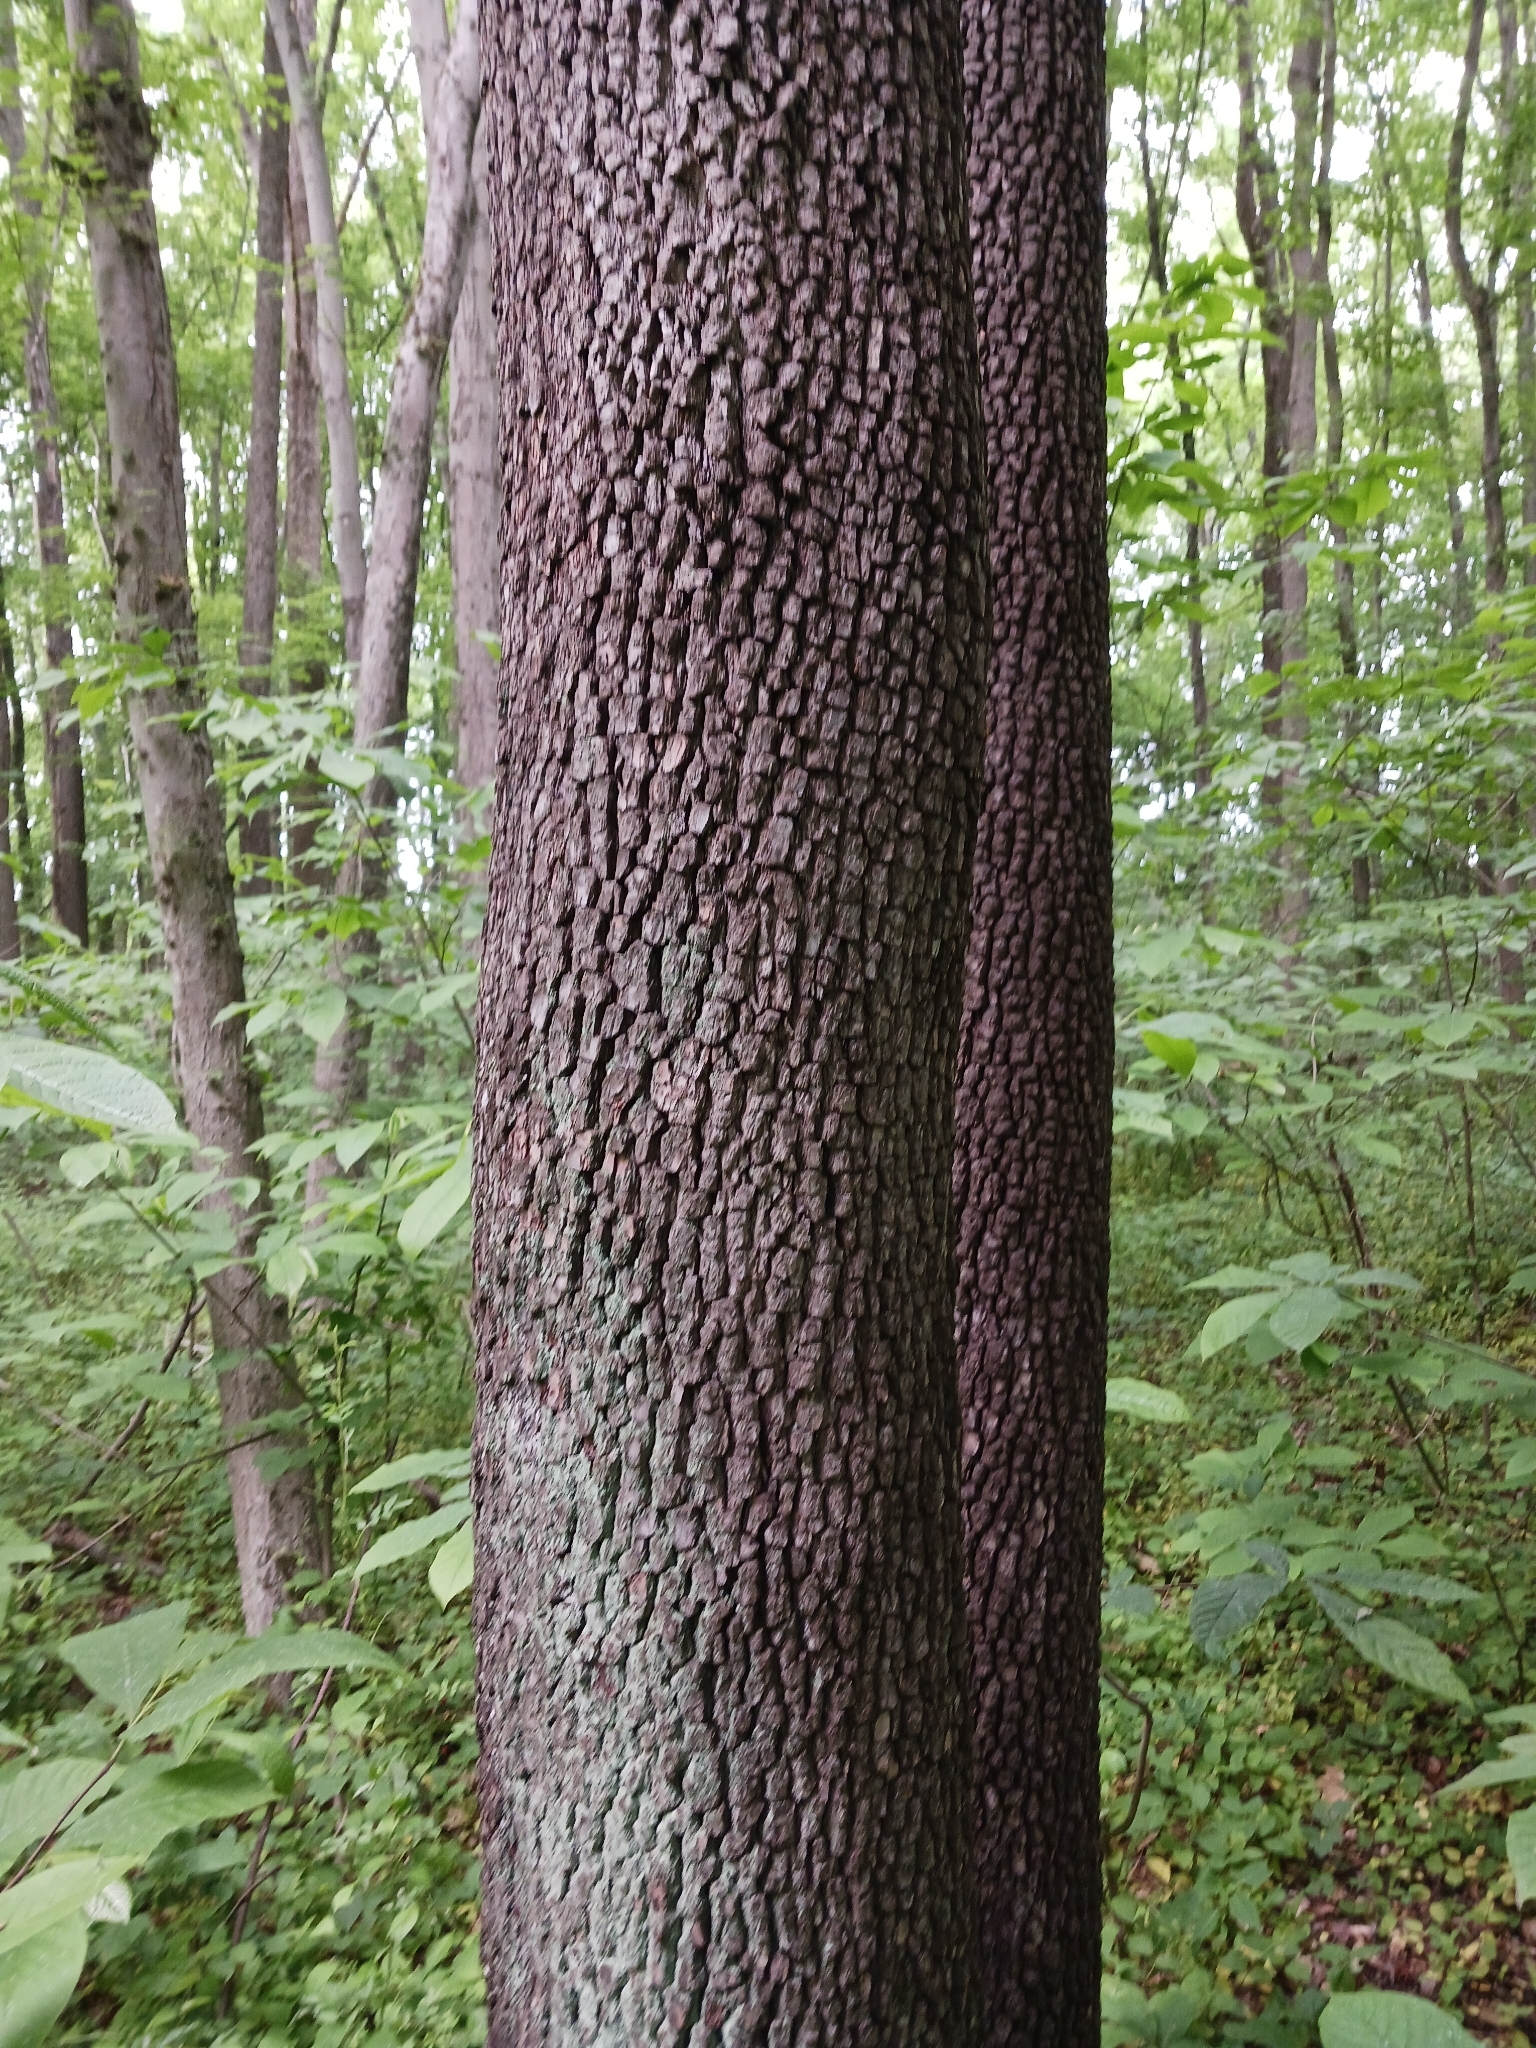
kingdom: Plantae
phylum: Tracheophyta
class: Magnoliopsida
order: Ericales
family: Ebenaceae
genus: Diospyros
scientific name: Diospyros virginiana
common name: Persimmon
